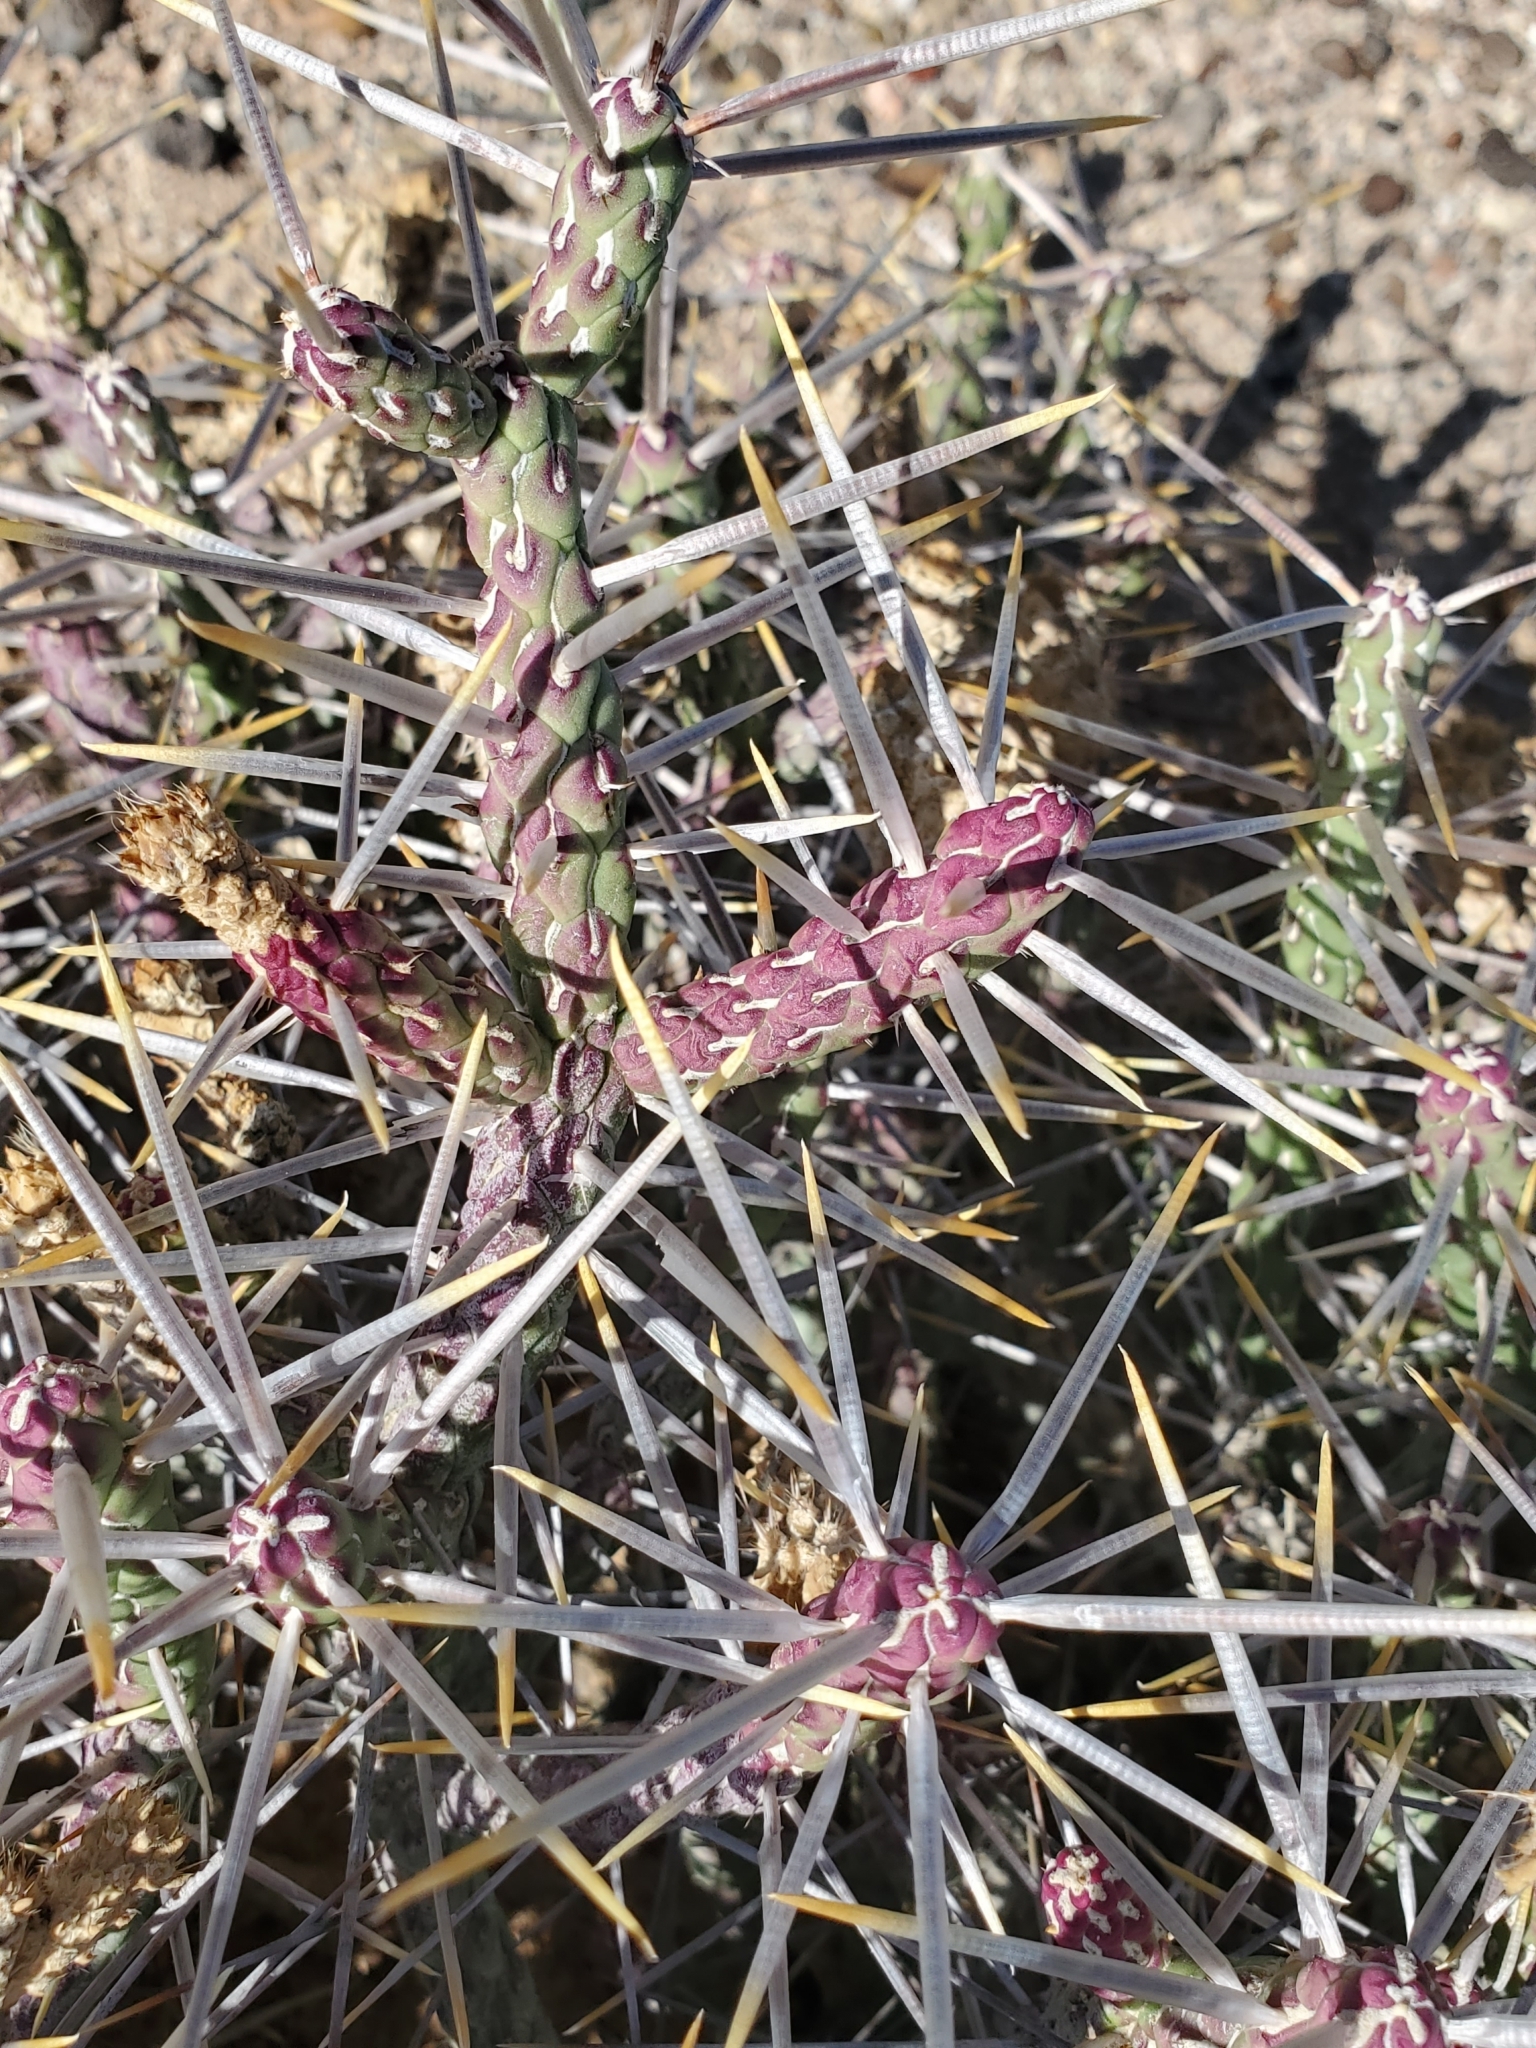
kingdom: Plantae
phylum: Tracheophyta
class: Magnoliopsida
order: Caryophyllales
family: Cactaceae
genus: Cylindropuntia
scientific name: Cylindropuntia ramosissima
